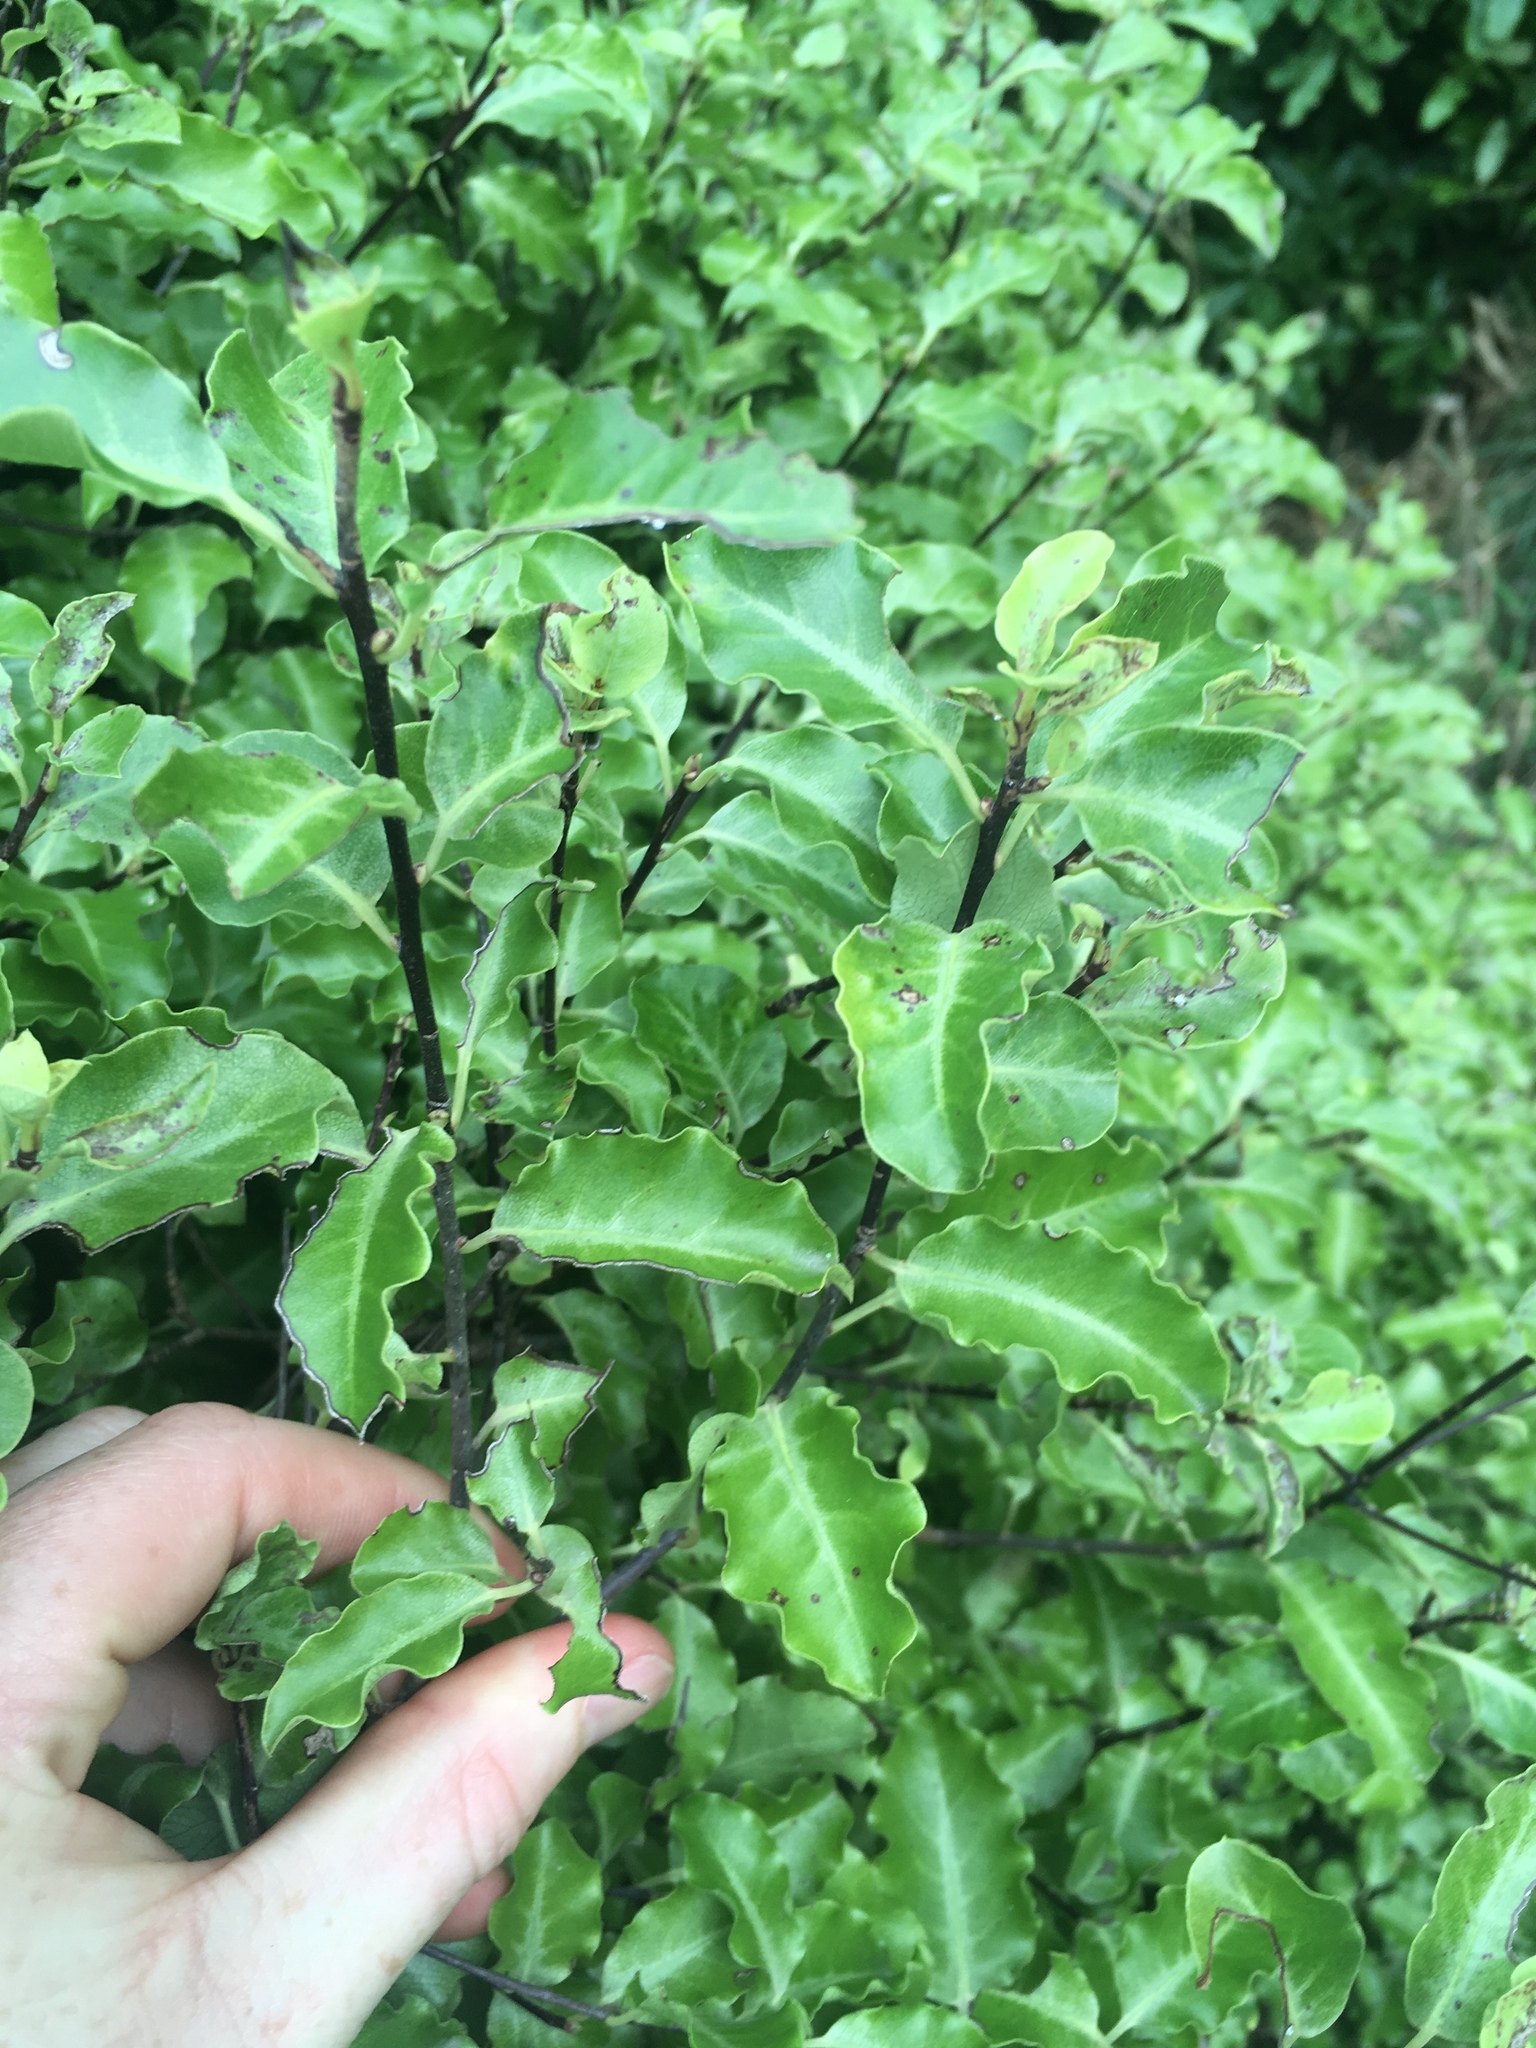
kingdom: Plantae
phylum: Tracheophyta
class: Magnoliopsida
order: Apiales
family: Pittosporaceae
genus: Pittosporum
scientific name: Pittosporum tenuifolium
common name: Kohuhu
